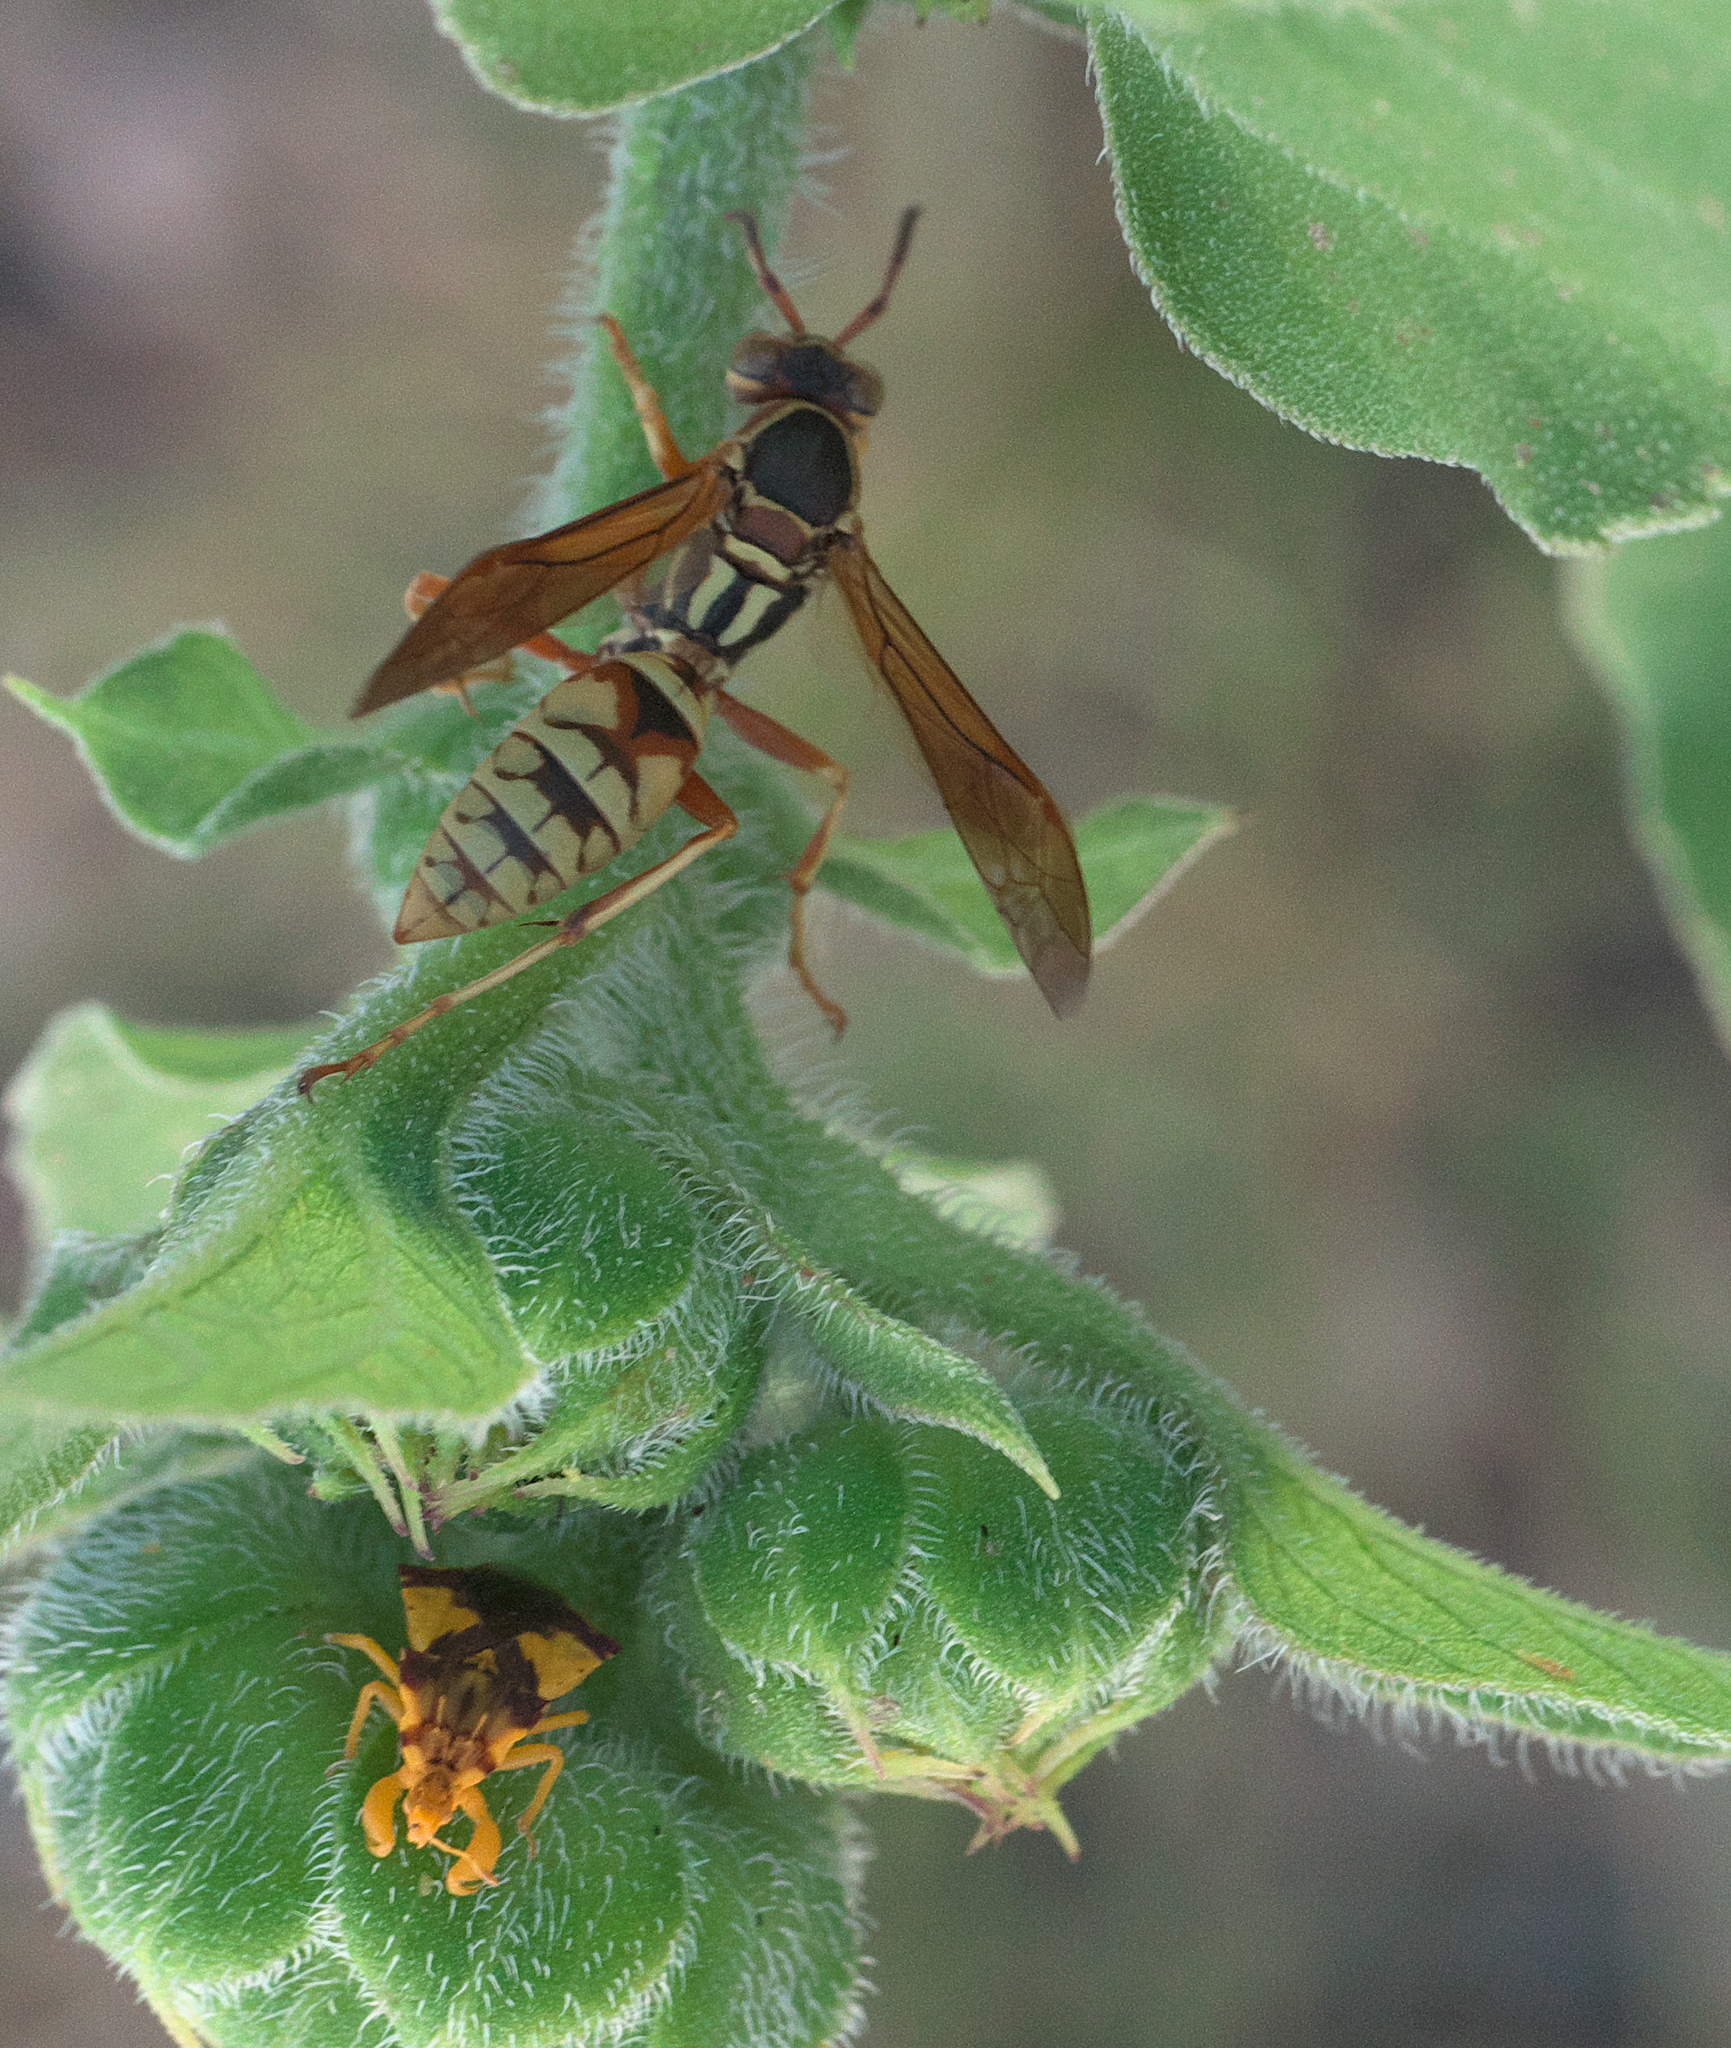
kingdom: Animalia
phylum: Arthropoda
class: Insecta
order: Hymenoptera
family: Eumenidae
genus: Polistes
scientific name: Polistes aurifer
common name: Paper wasp
